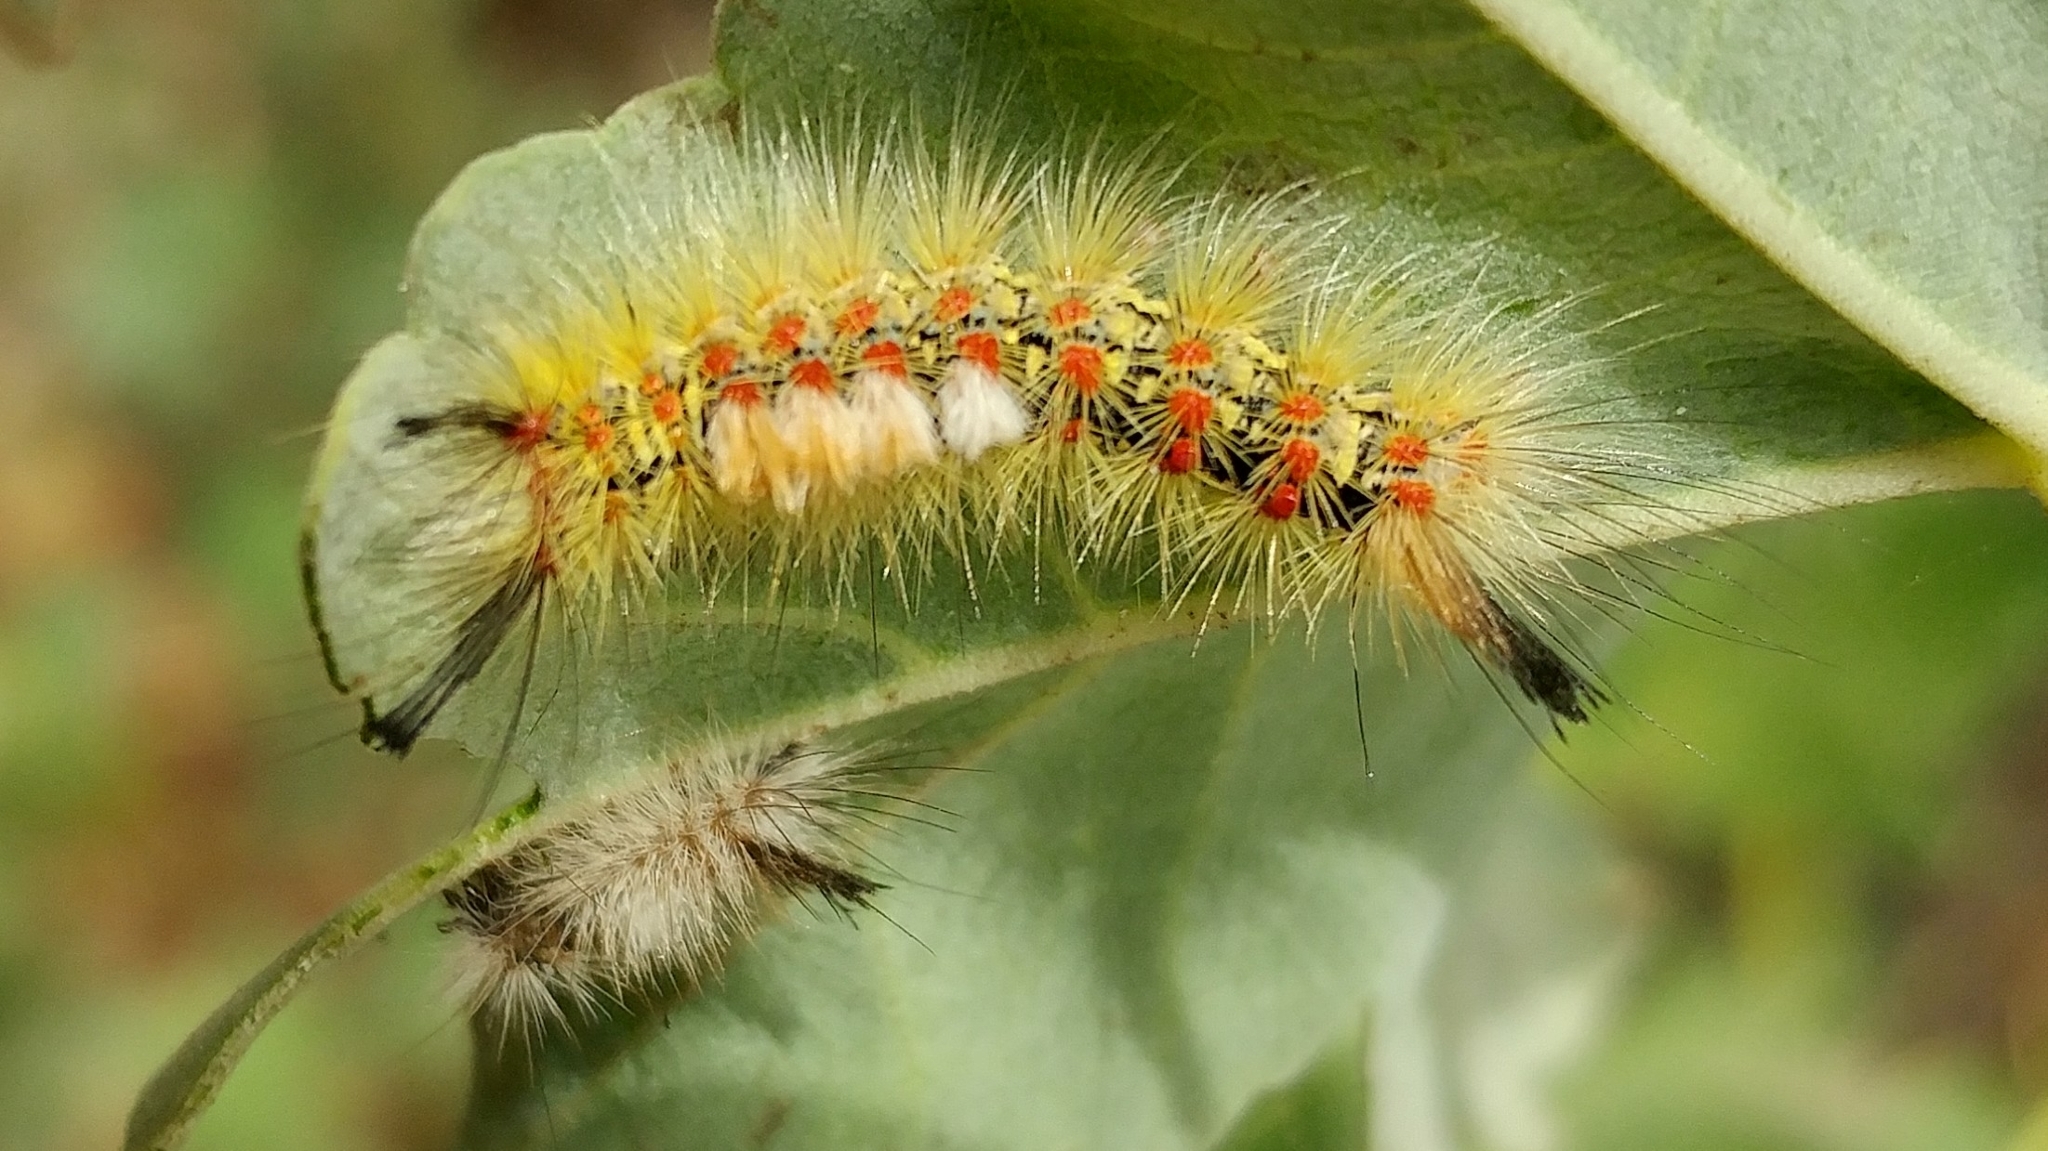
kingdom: Animalia
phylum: Arthropoda
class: Insecta
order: Lepidoptera
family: Erebidae
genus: Orgyia
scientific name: Orgyia
